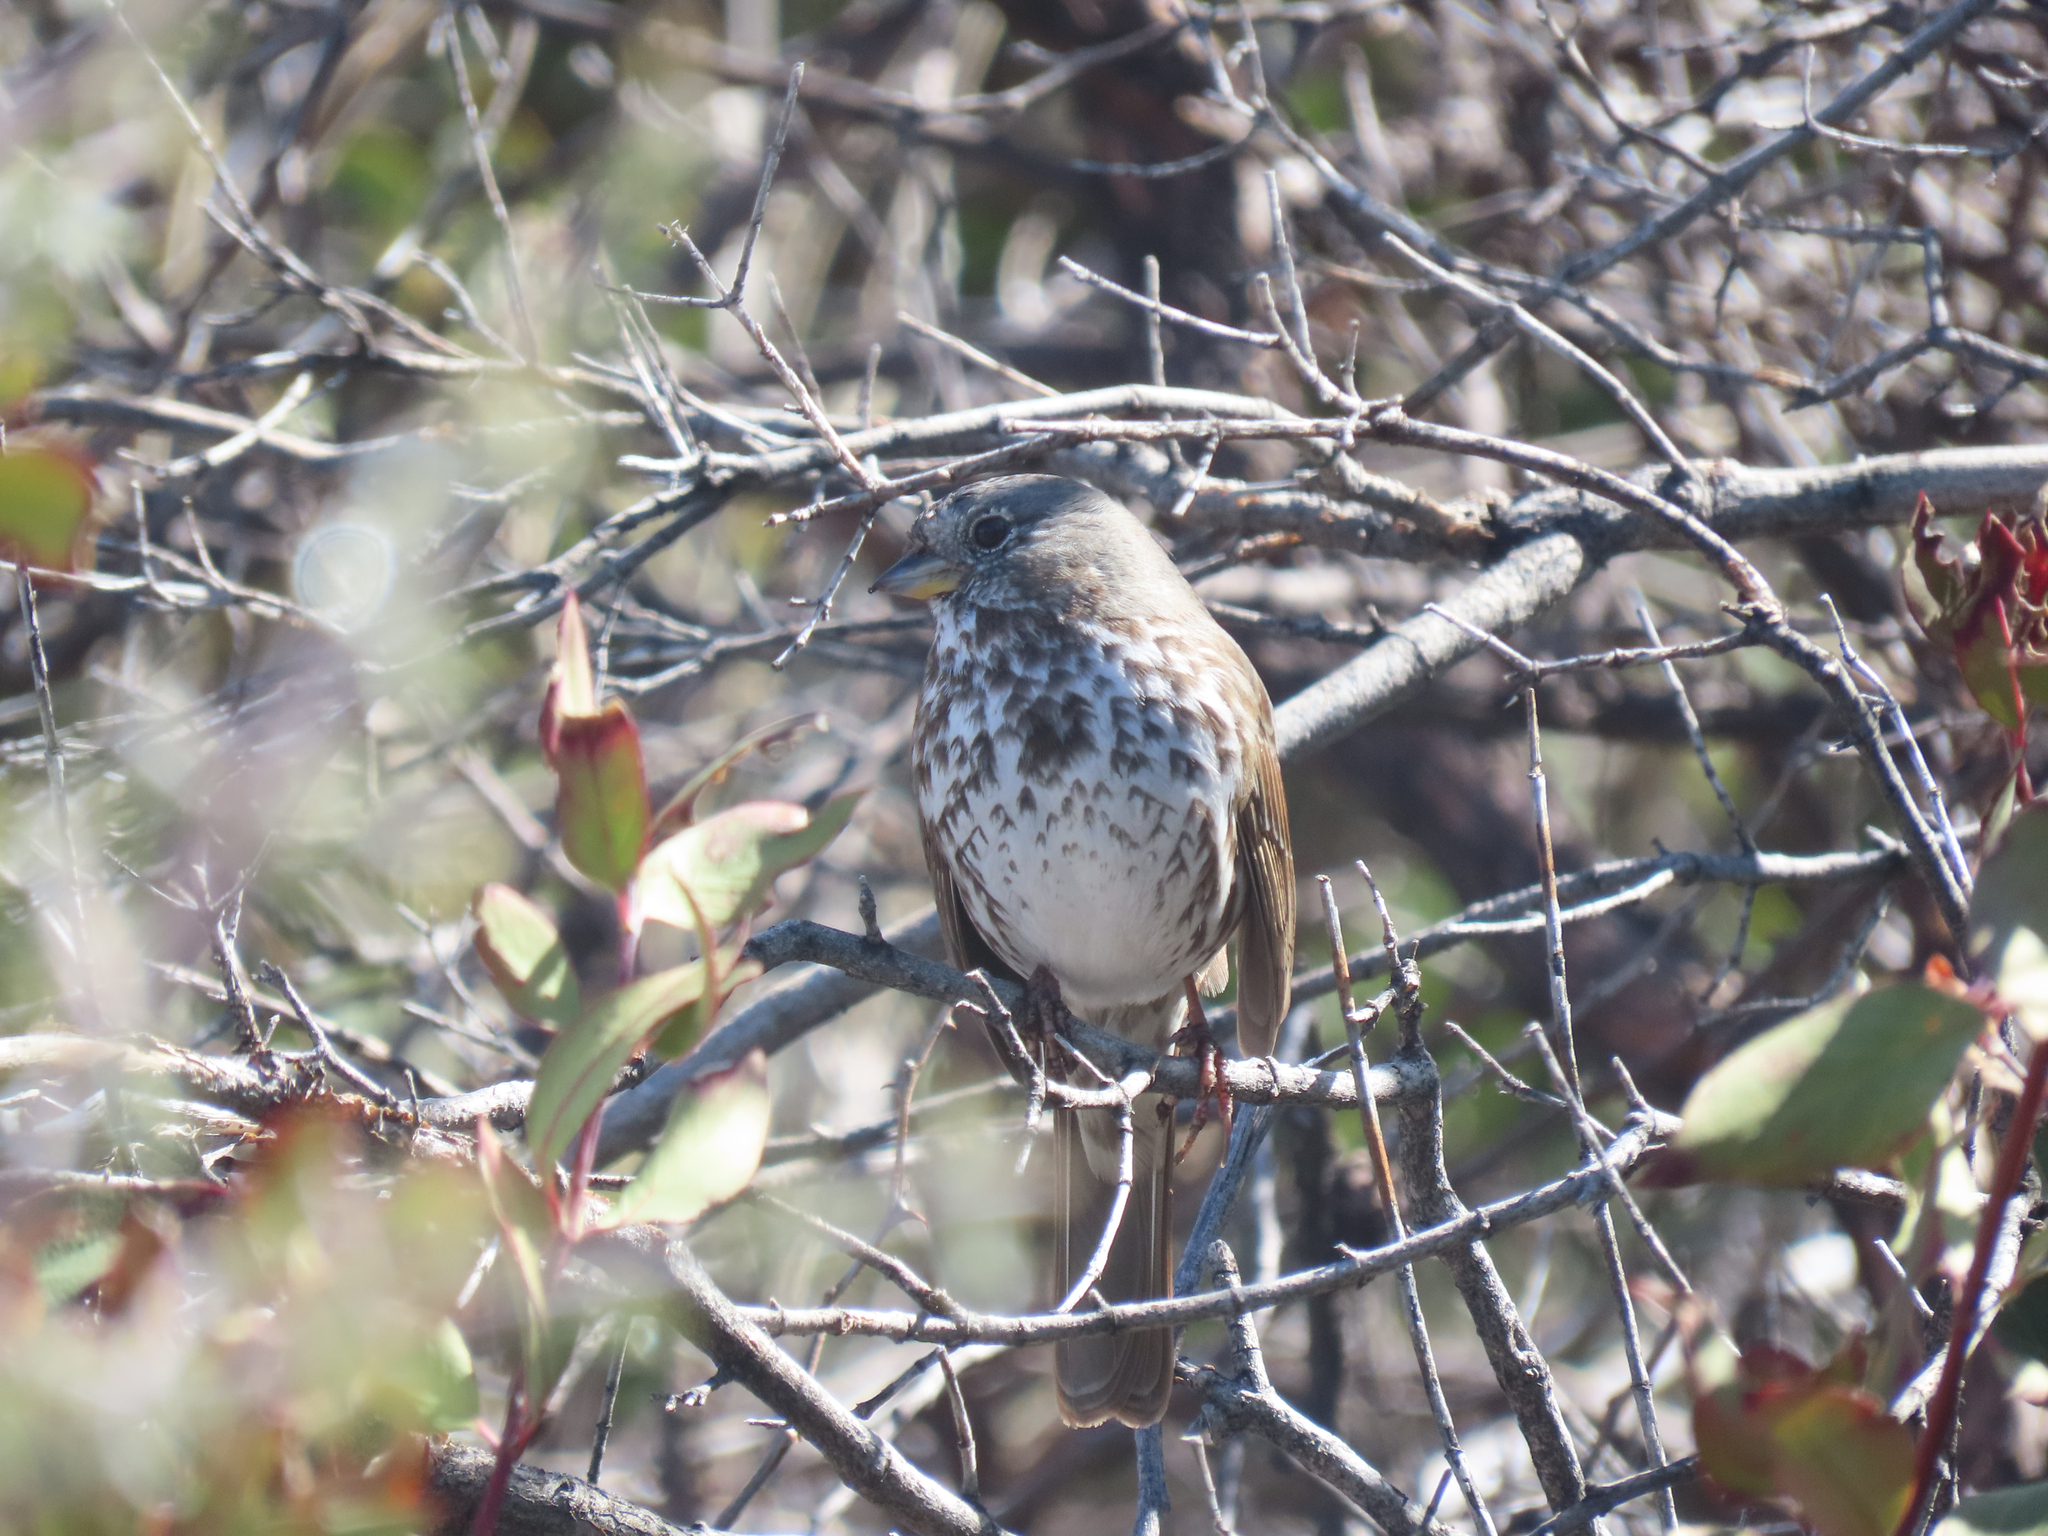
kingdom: Animalia
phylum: Chordata
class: Aves
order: Passeriformes
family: Passerellidae
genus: Passerella
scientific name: Passerella iliaca
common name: Fox sparrow
